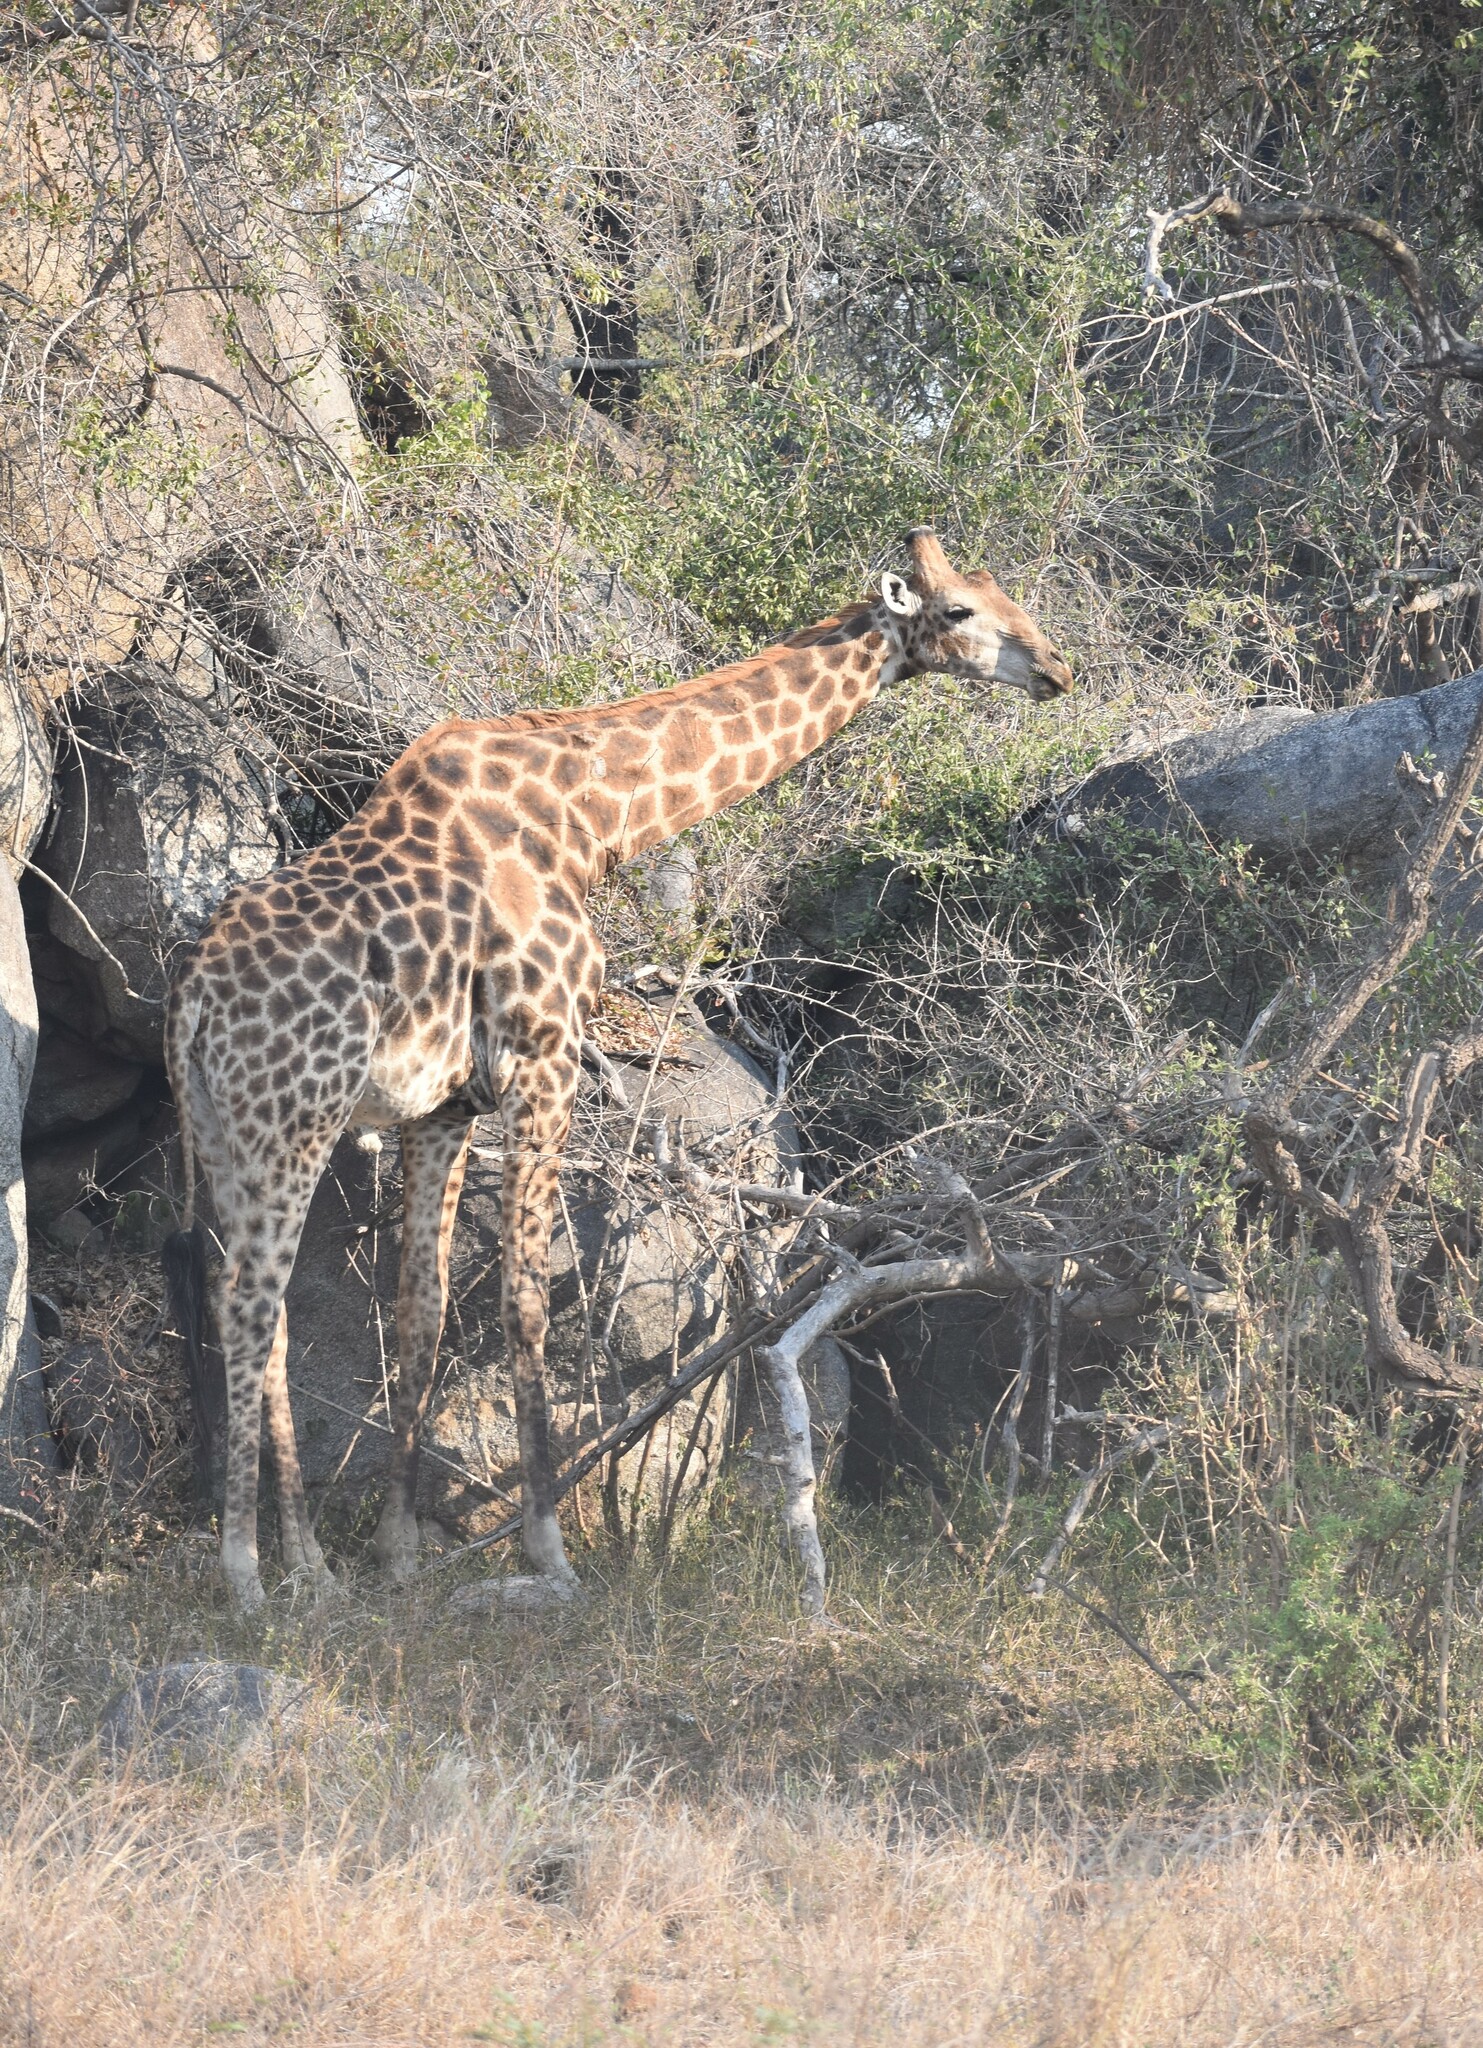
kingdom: Animalia
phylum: Chordata
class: Mammalia
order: Artiodactyla
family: Giraffidae
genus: Giraffa
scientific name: Giraffa giraffa
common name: Southern giraffe
